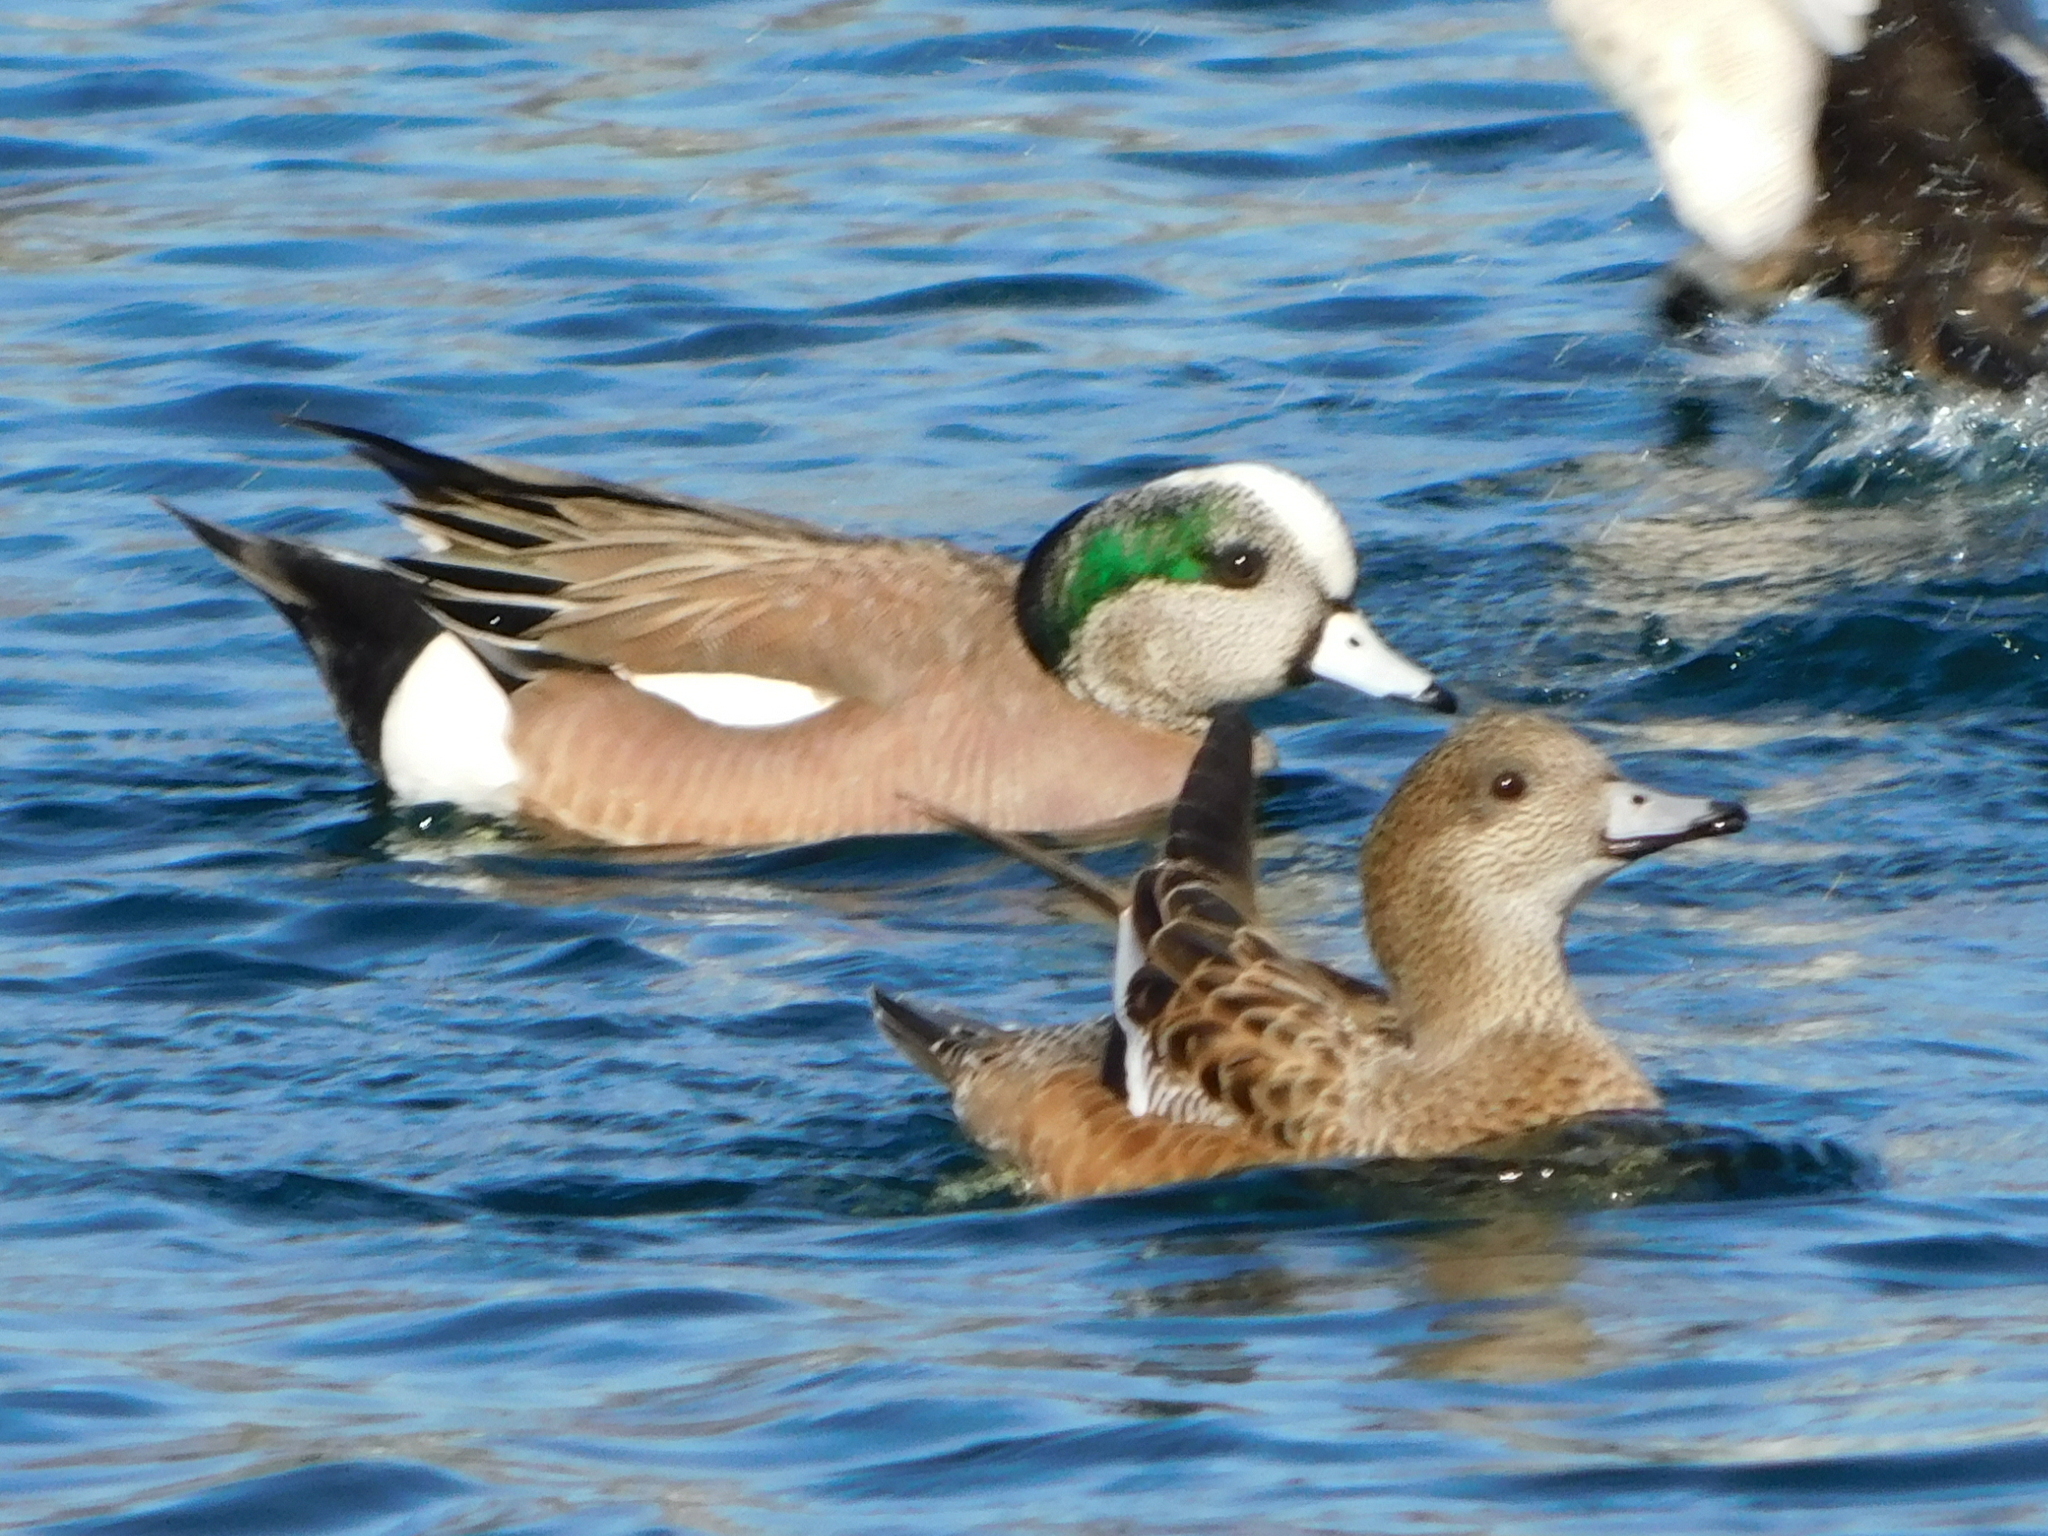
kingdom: Animalia
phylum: Chordata
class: Aves
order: Anseriformes
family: Anatidae
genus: Mareca
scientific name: Mareca americana
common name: American wigeon
